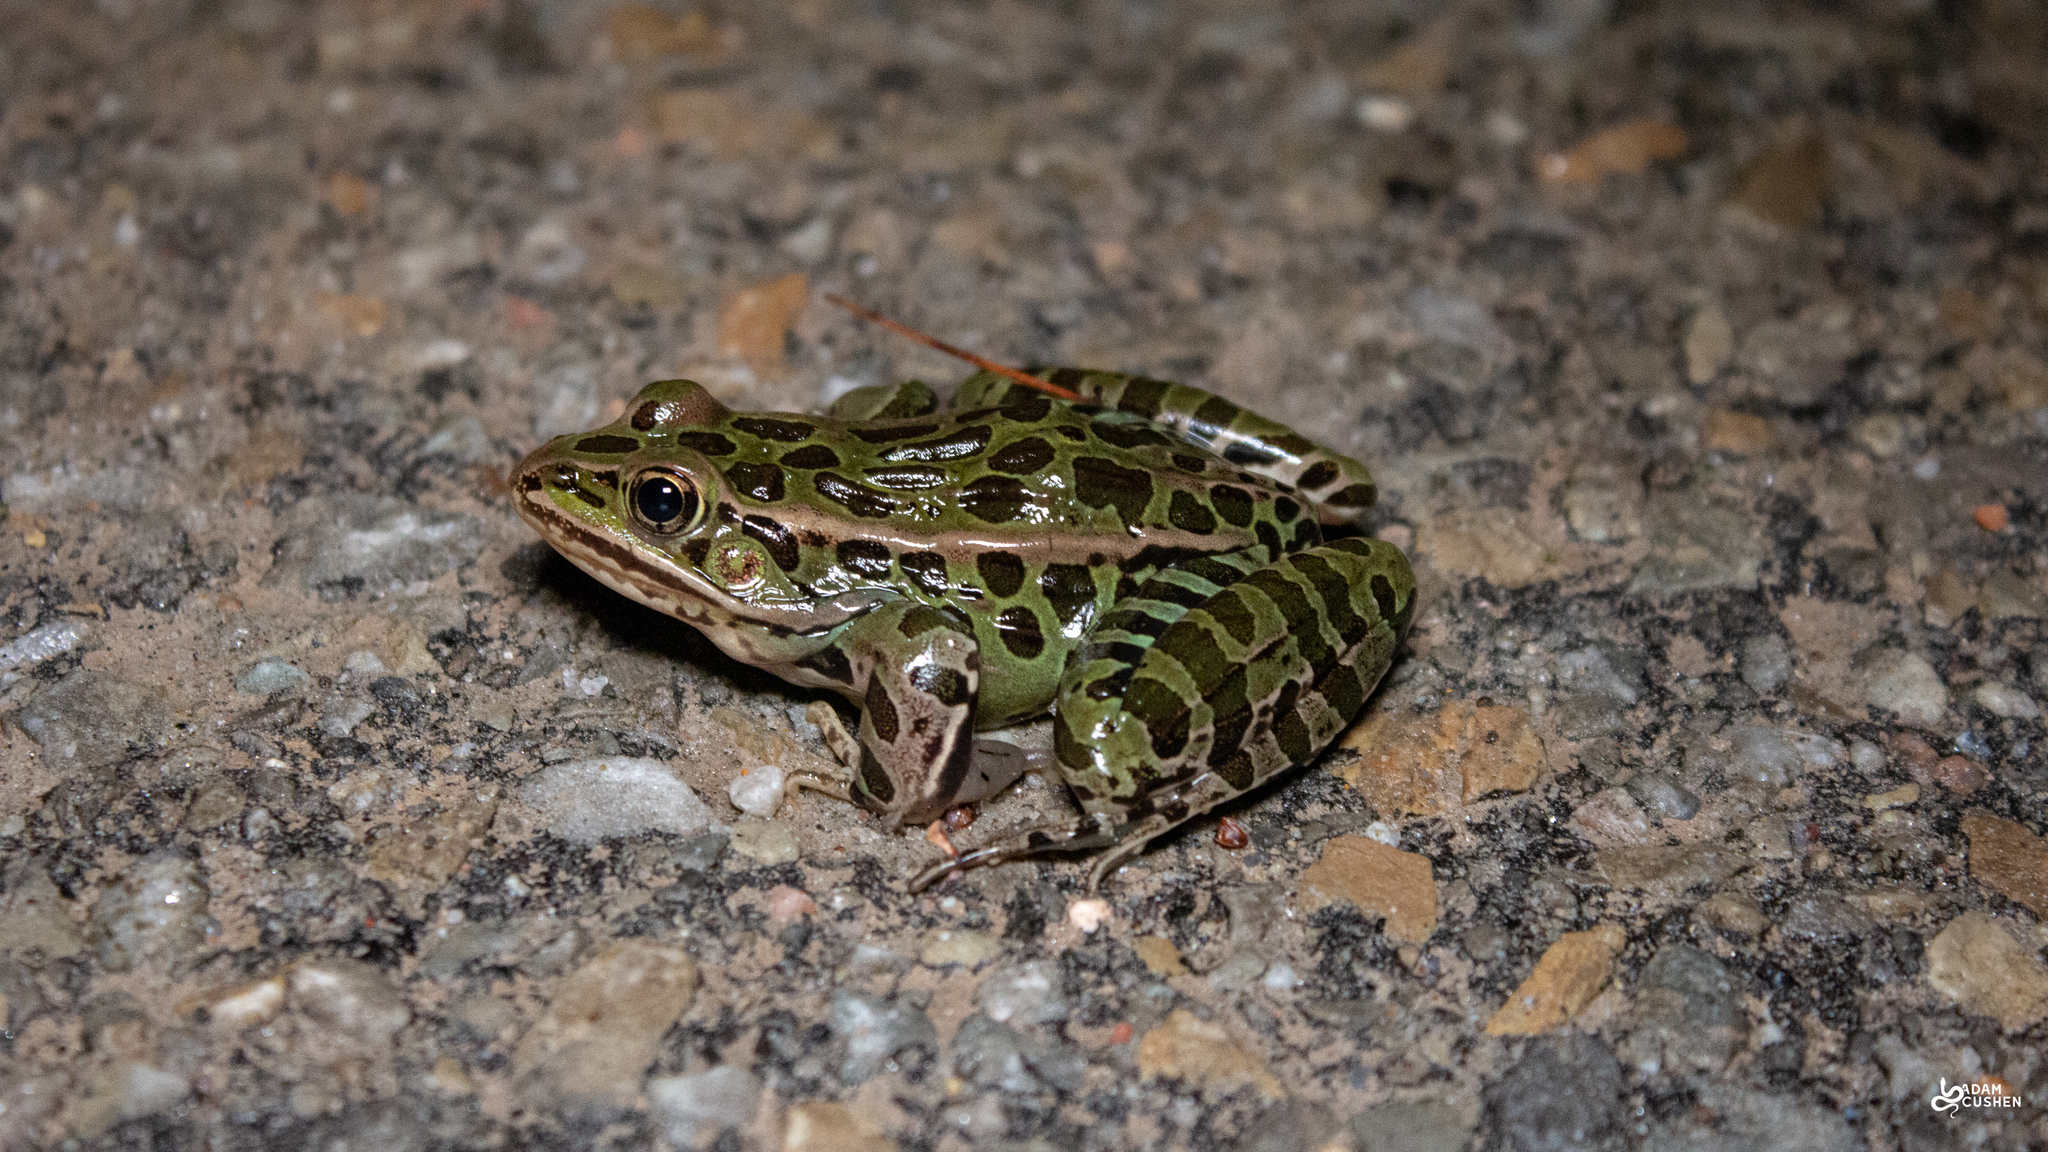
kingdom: Animalia
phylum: Chordata
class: Amphibia
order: Anura
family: Ranidae
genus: Lithobates
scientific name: Lithobates pipiens
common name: Northern leopard frog
